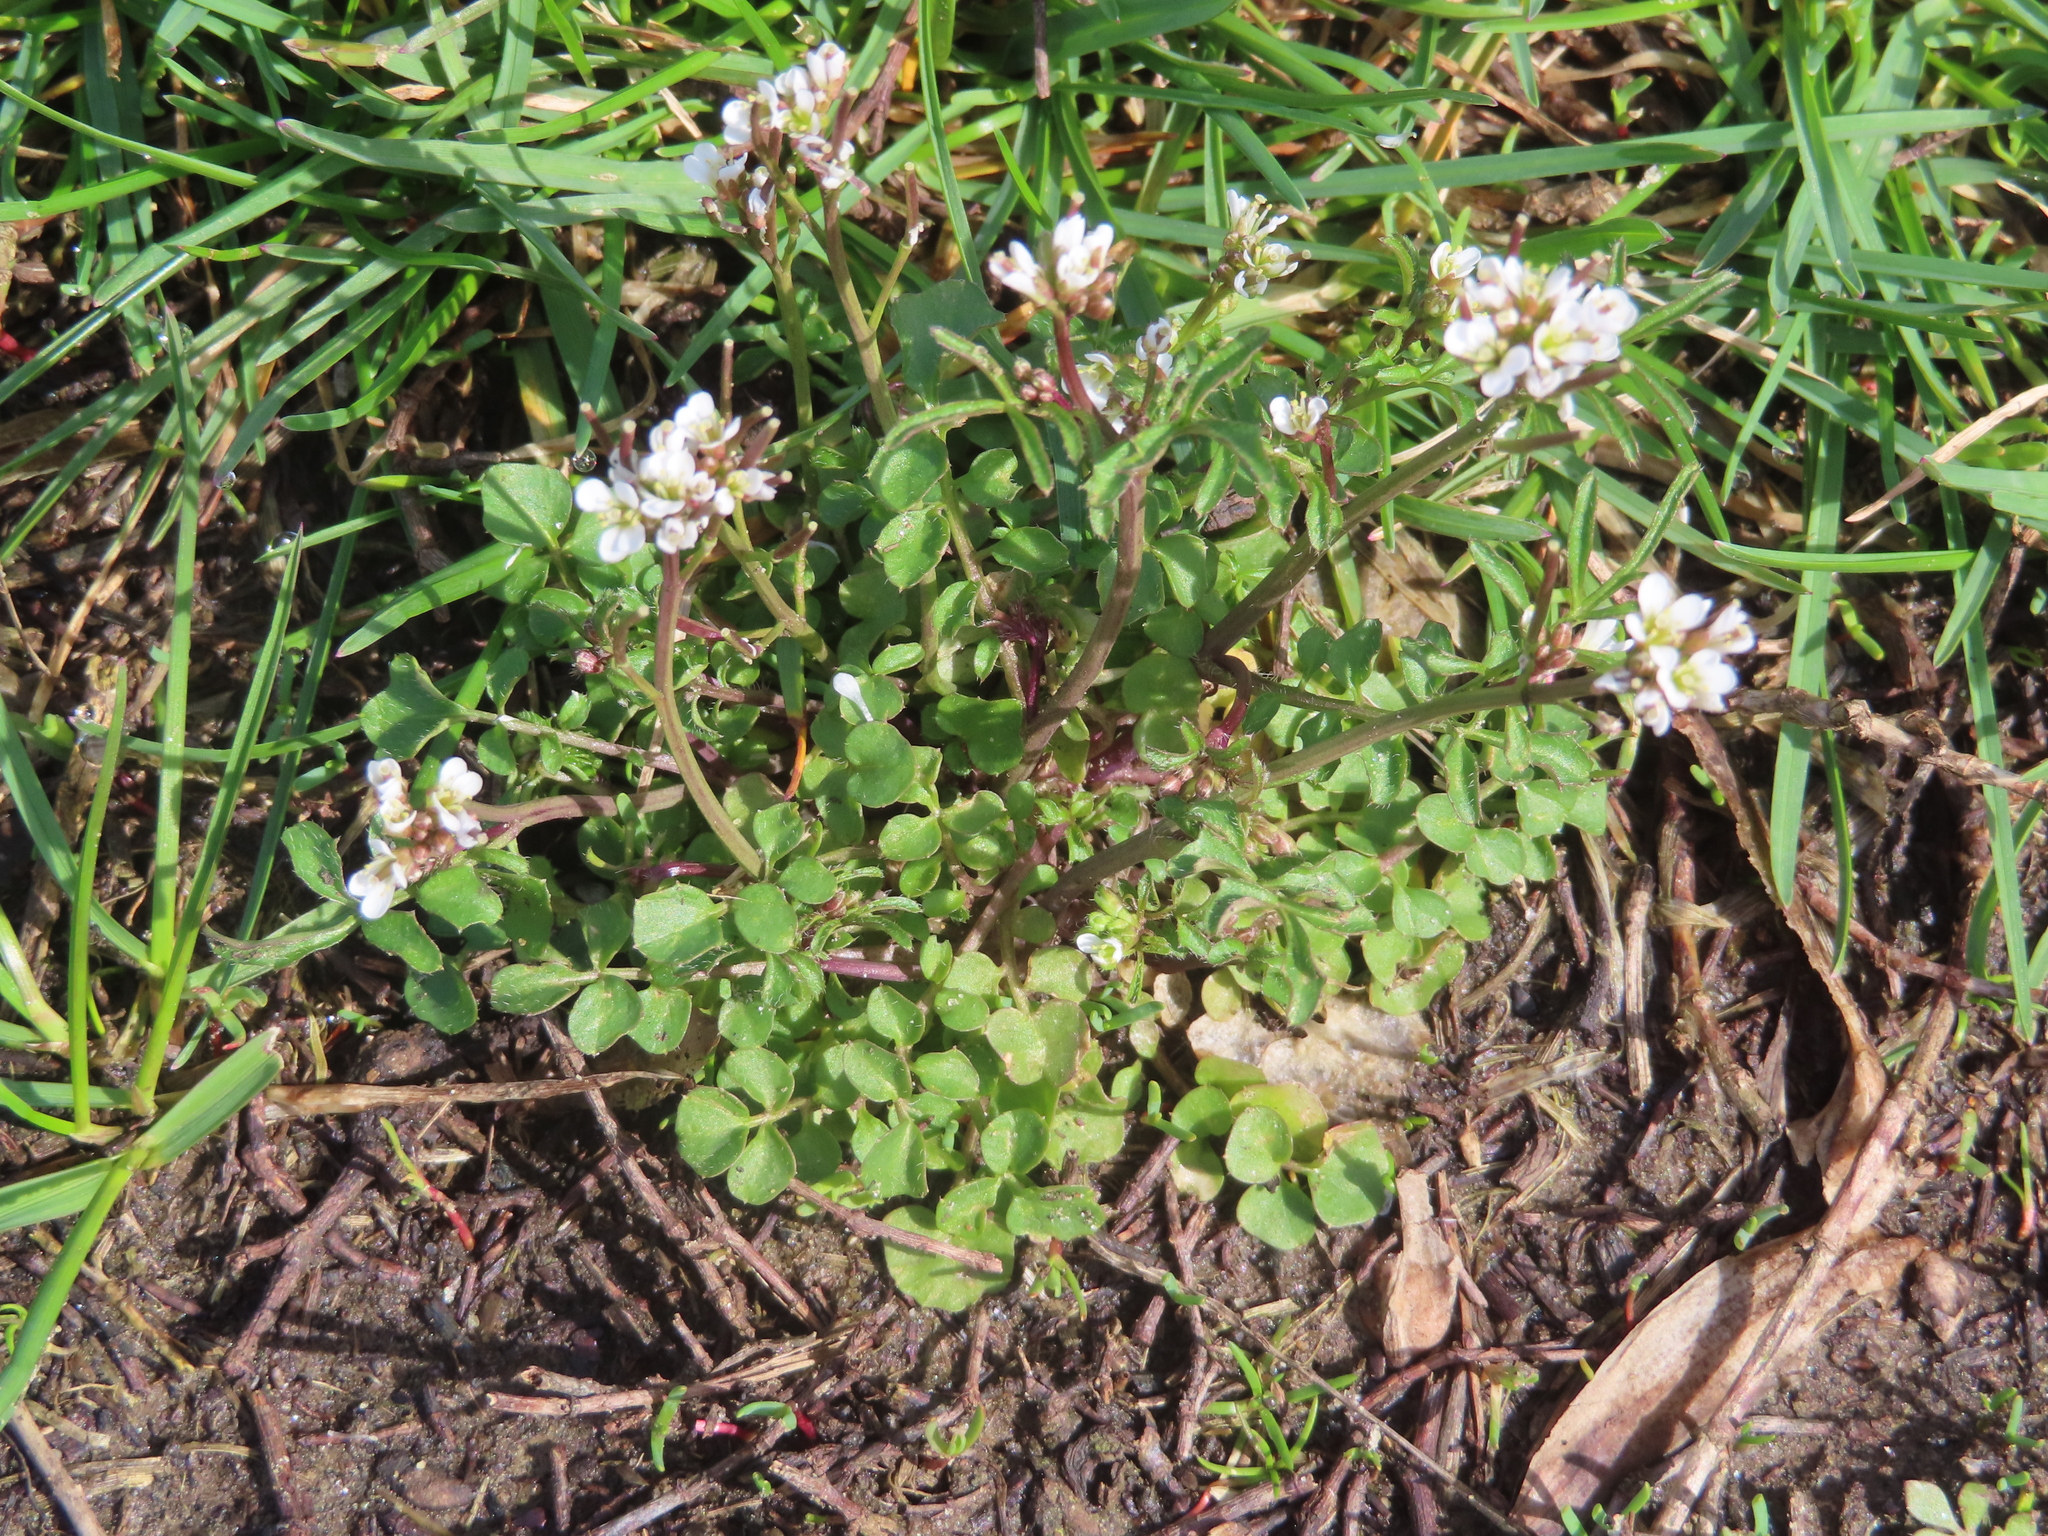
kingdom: Plantae
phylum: Tracheophyta
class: Magnoliopsida
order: Brassicales
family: Brassicaceae
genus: Cardamine
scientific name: Cardamine hirsuta
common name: Hairy bittercress
